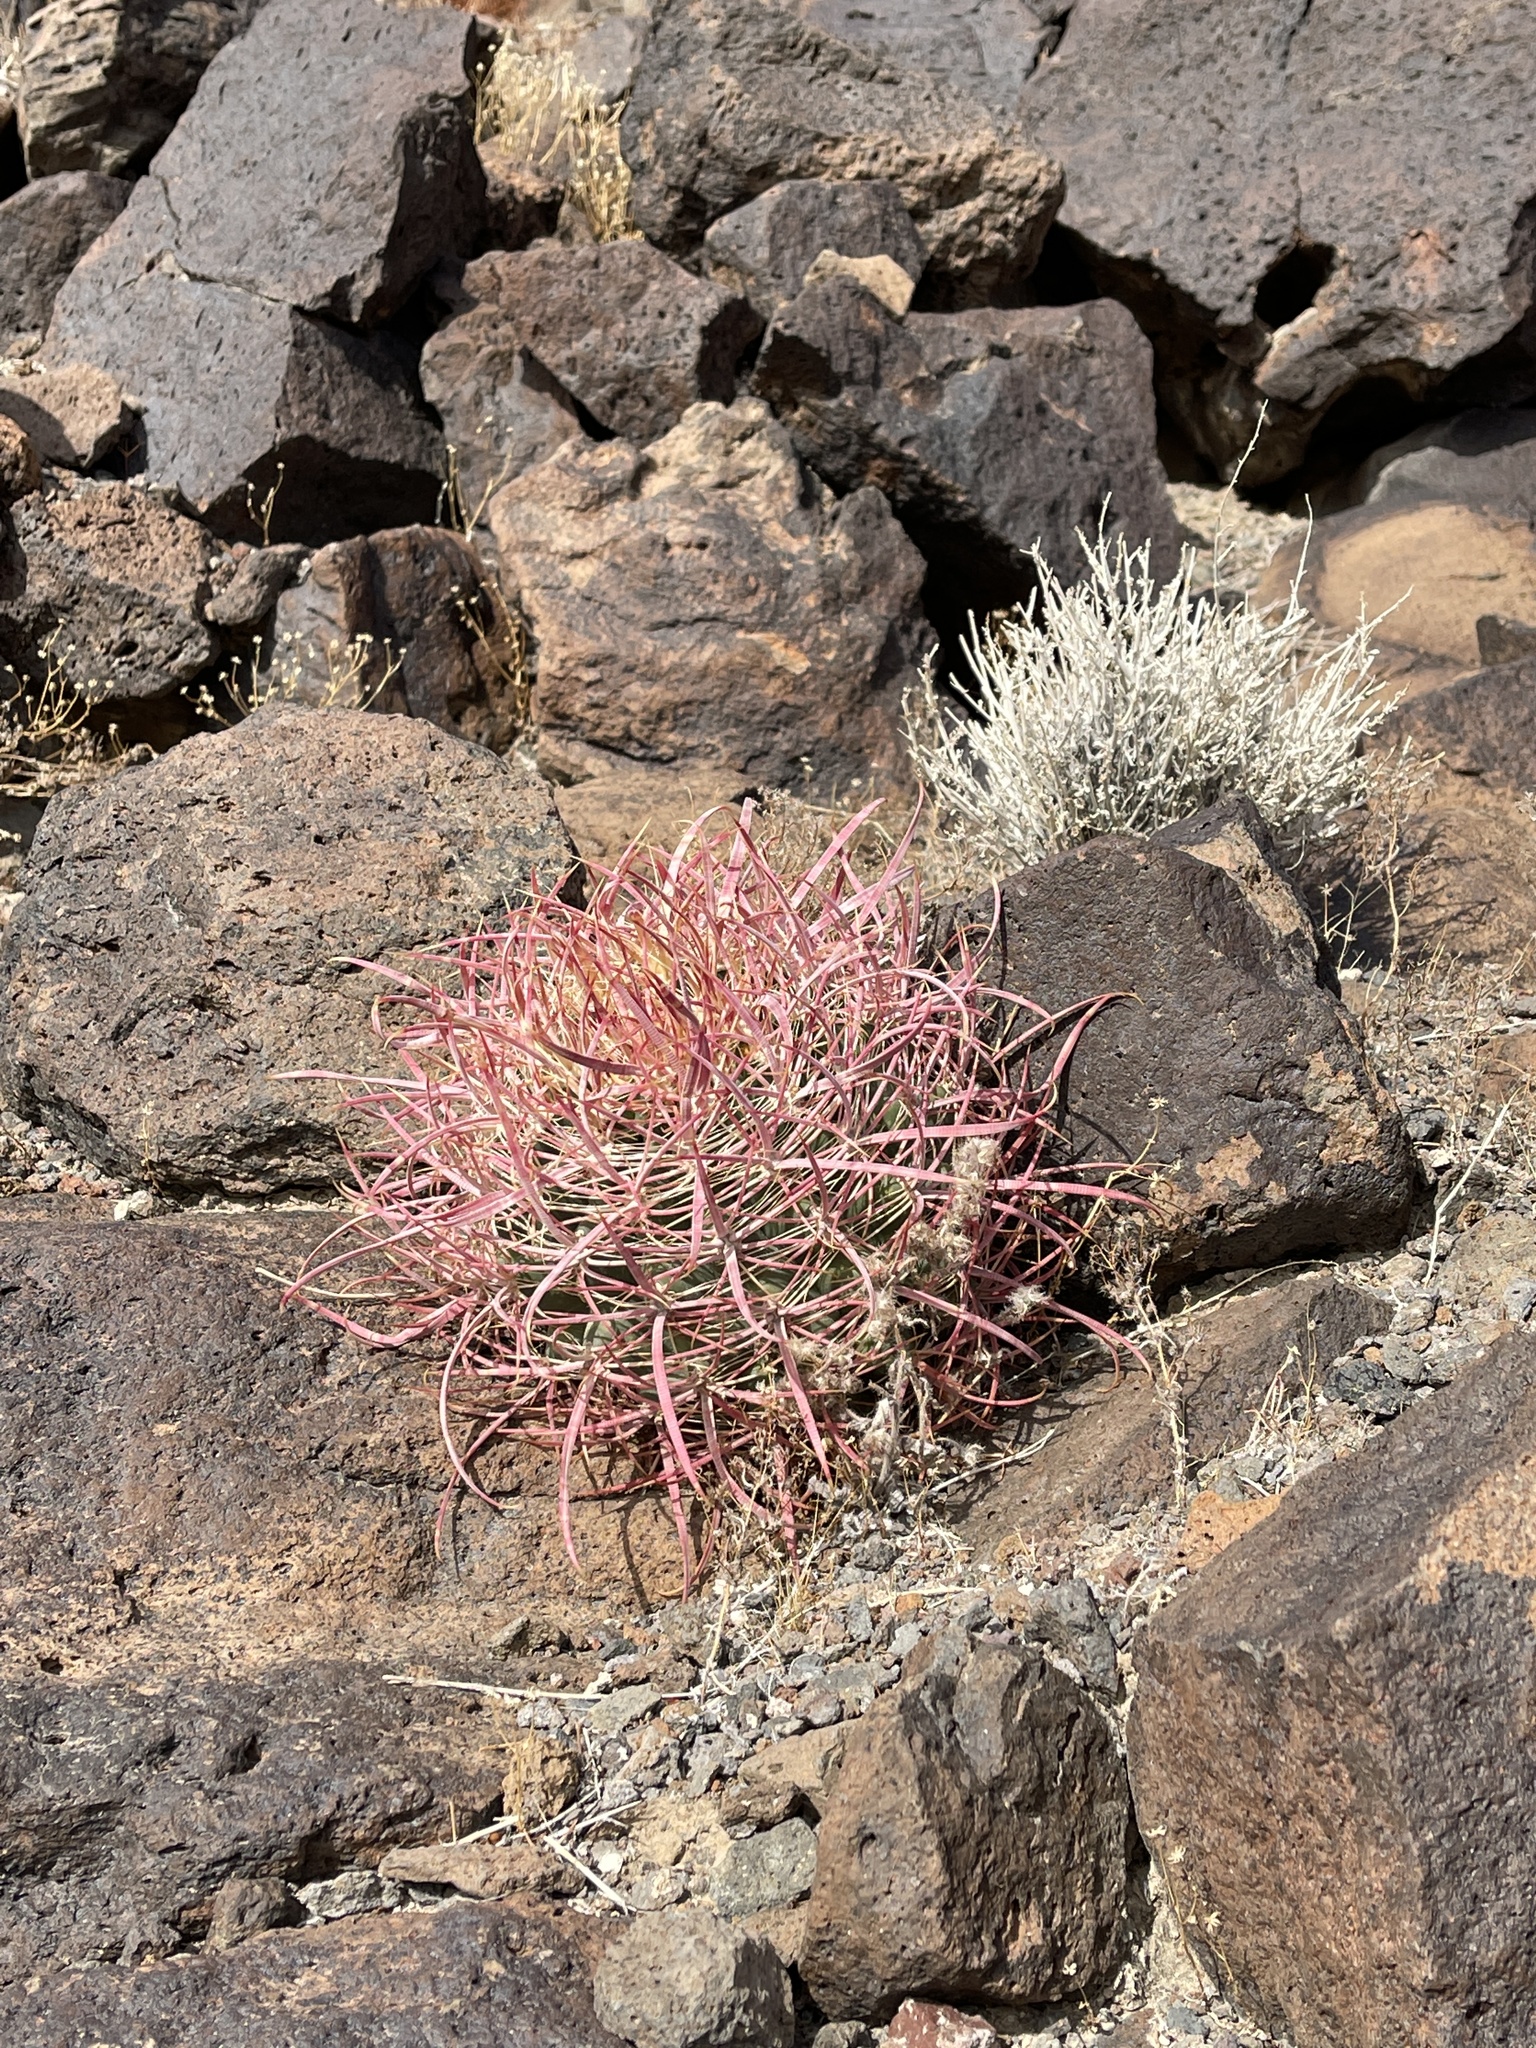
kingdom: Plantae
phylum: Tracheophyta
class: Magnoliopsida
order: Caryophyllales
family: Cactaceae
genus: Ferocactus
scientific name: Ferocactus cylindraceus
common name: California barrel cactus
